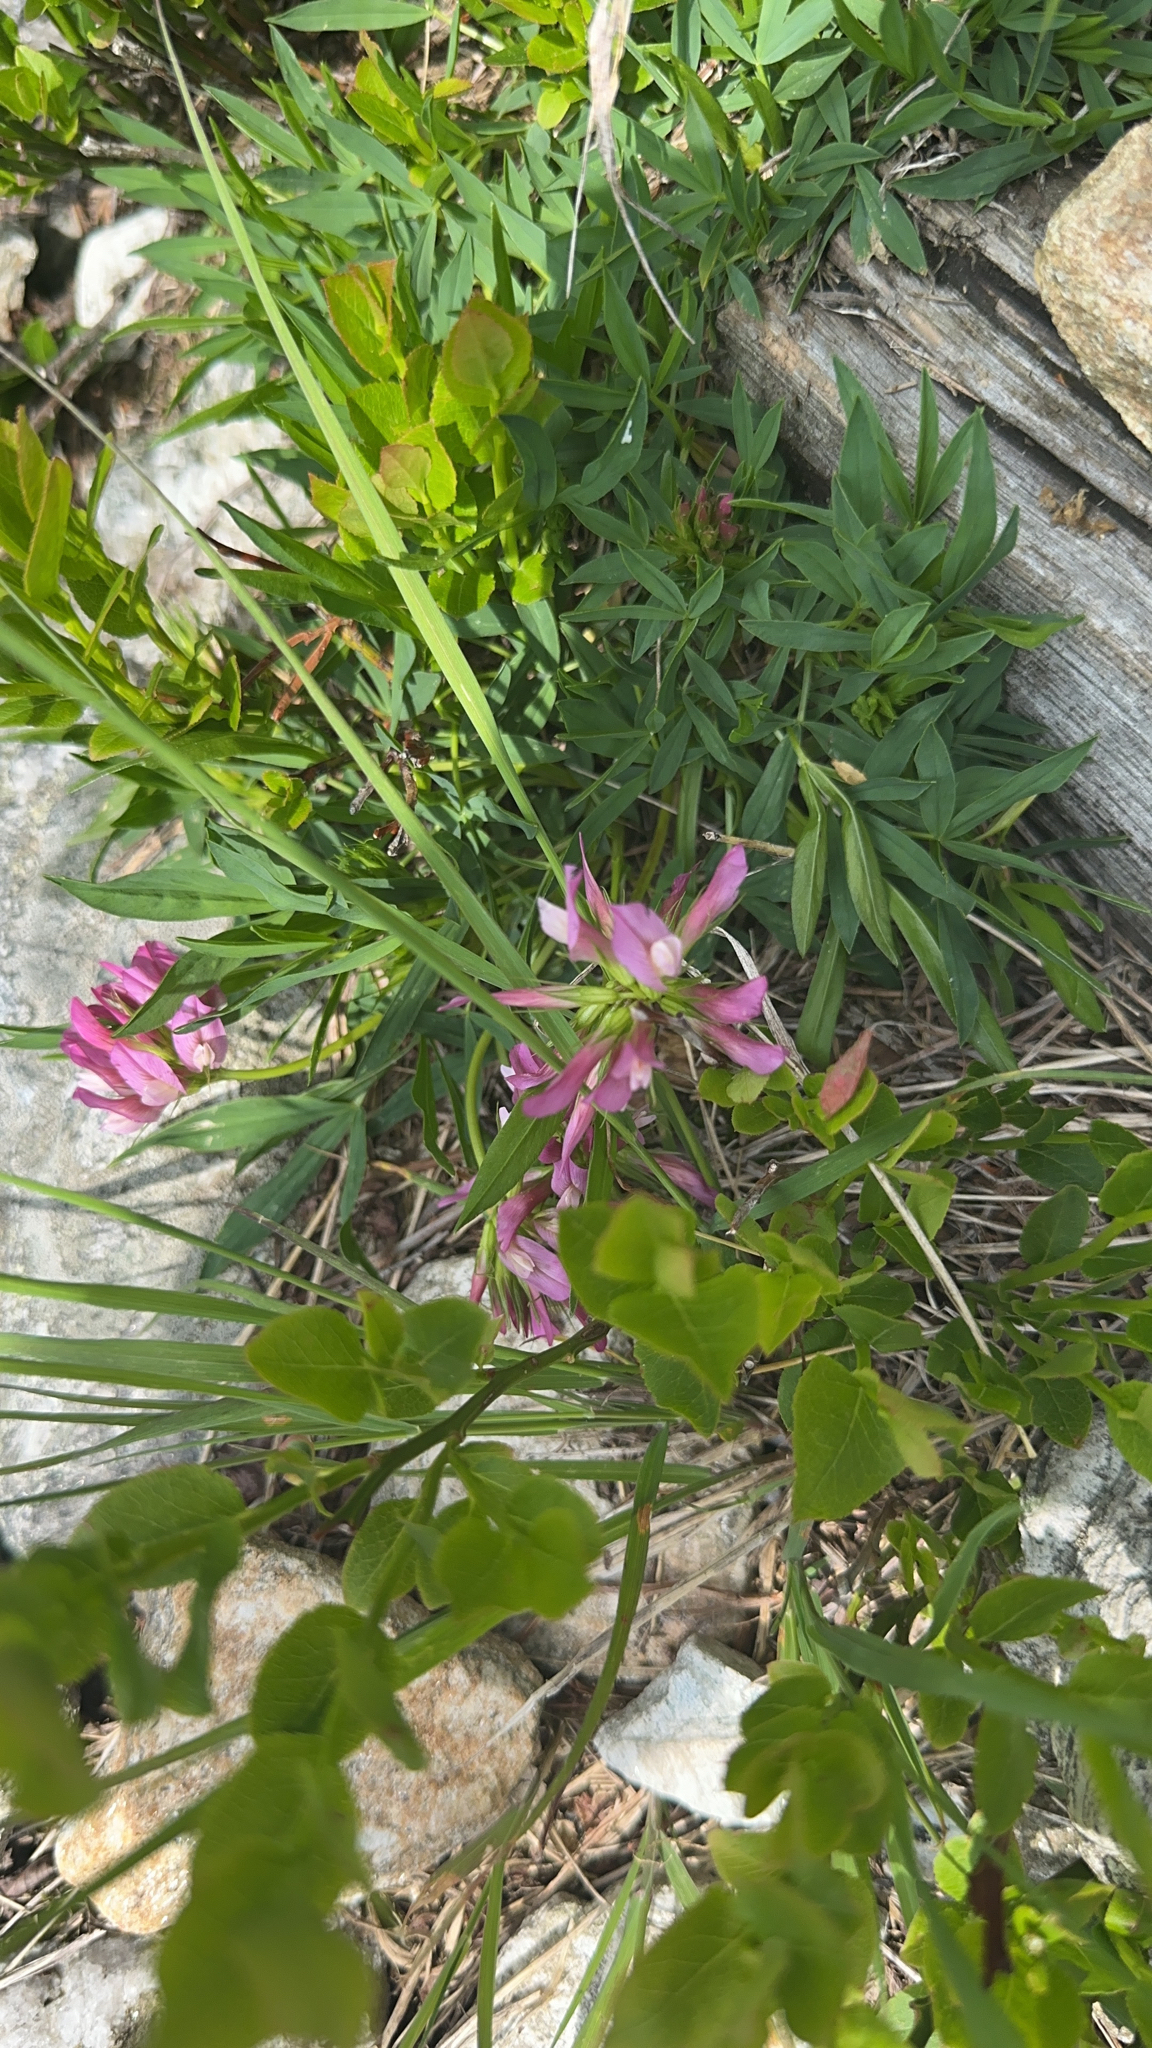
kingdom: Plantae
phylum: Tracheophyta
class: Magnoliopsida
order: Fabales
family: Fabaceae
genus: Trifolium
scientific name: Trifolium alpinum
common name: Alpine clover
